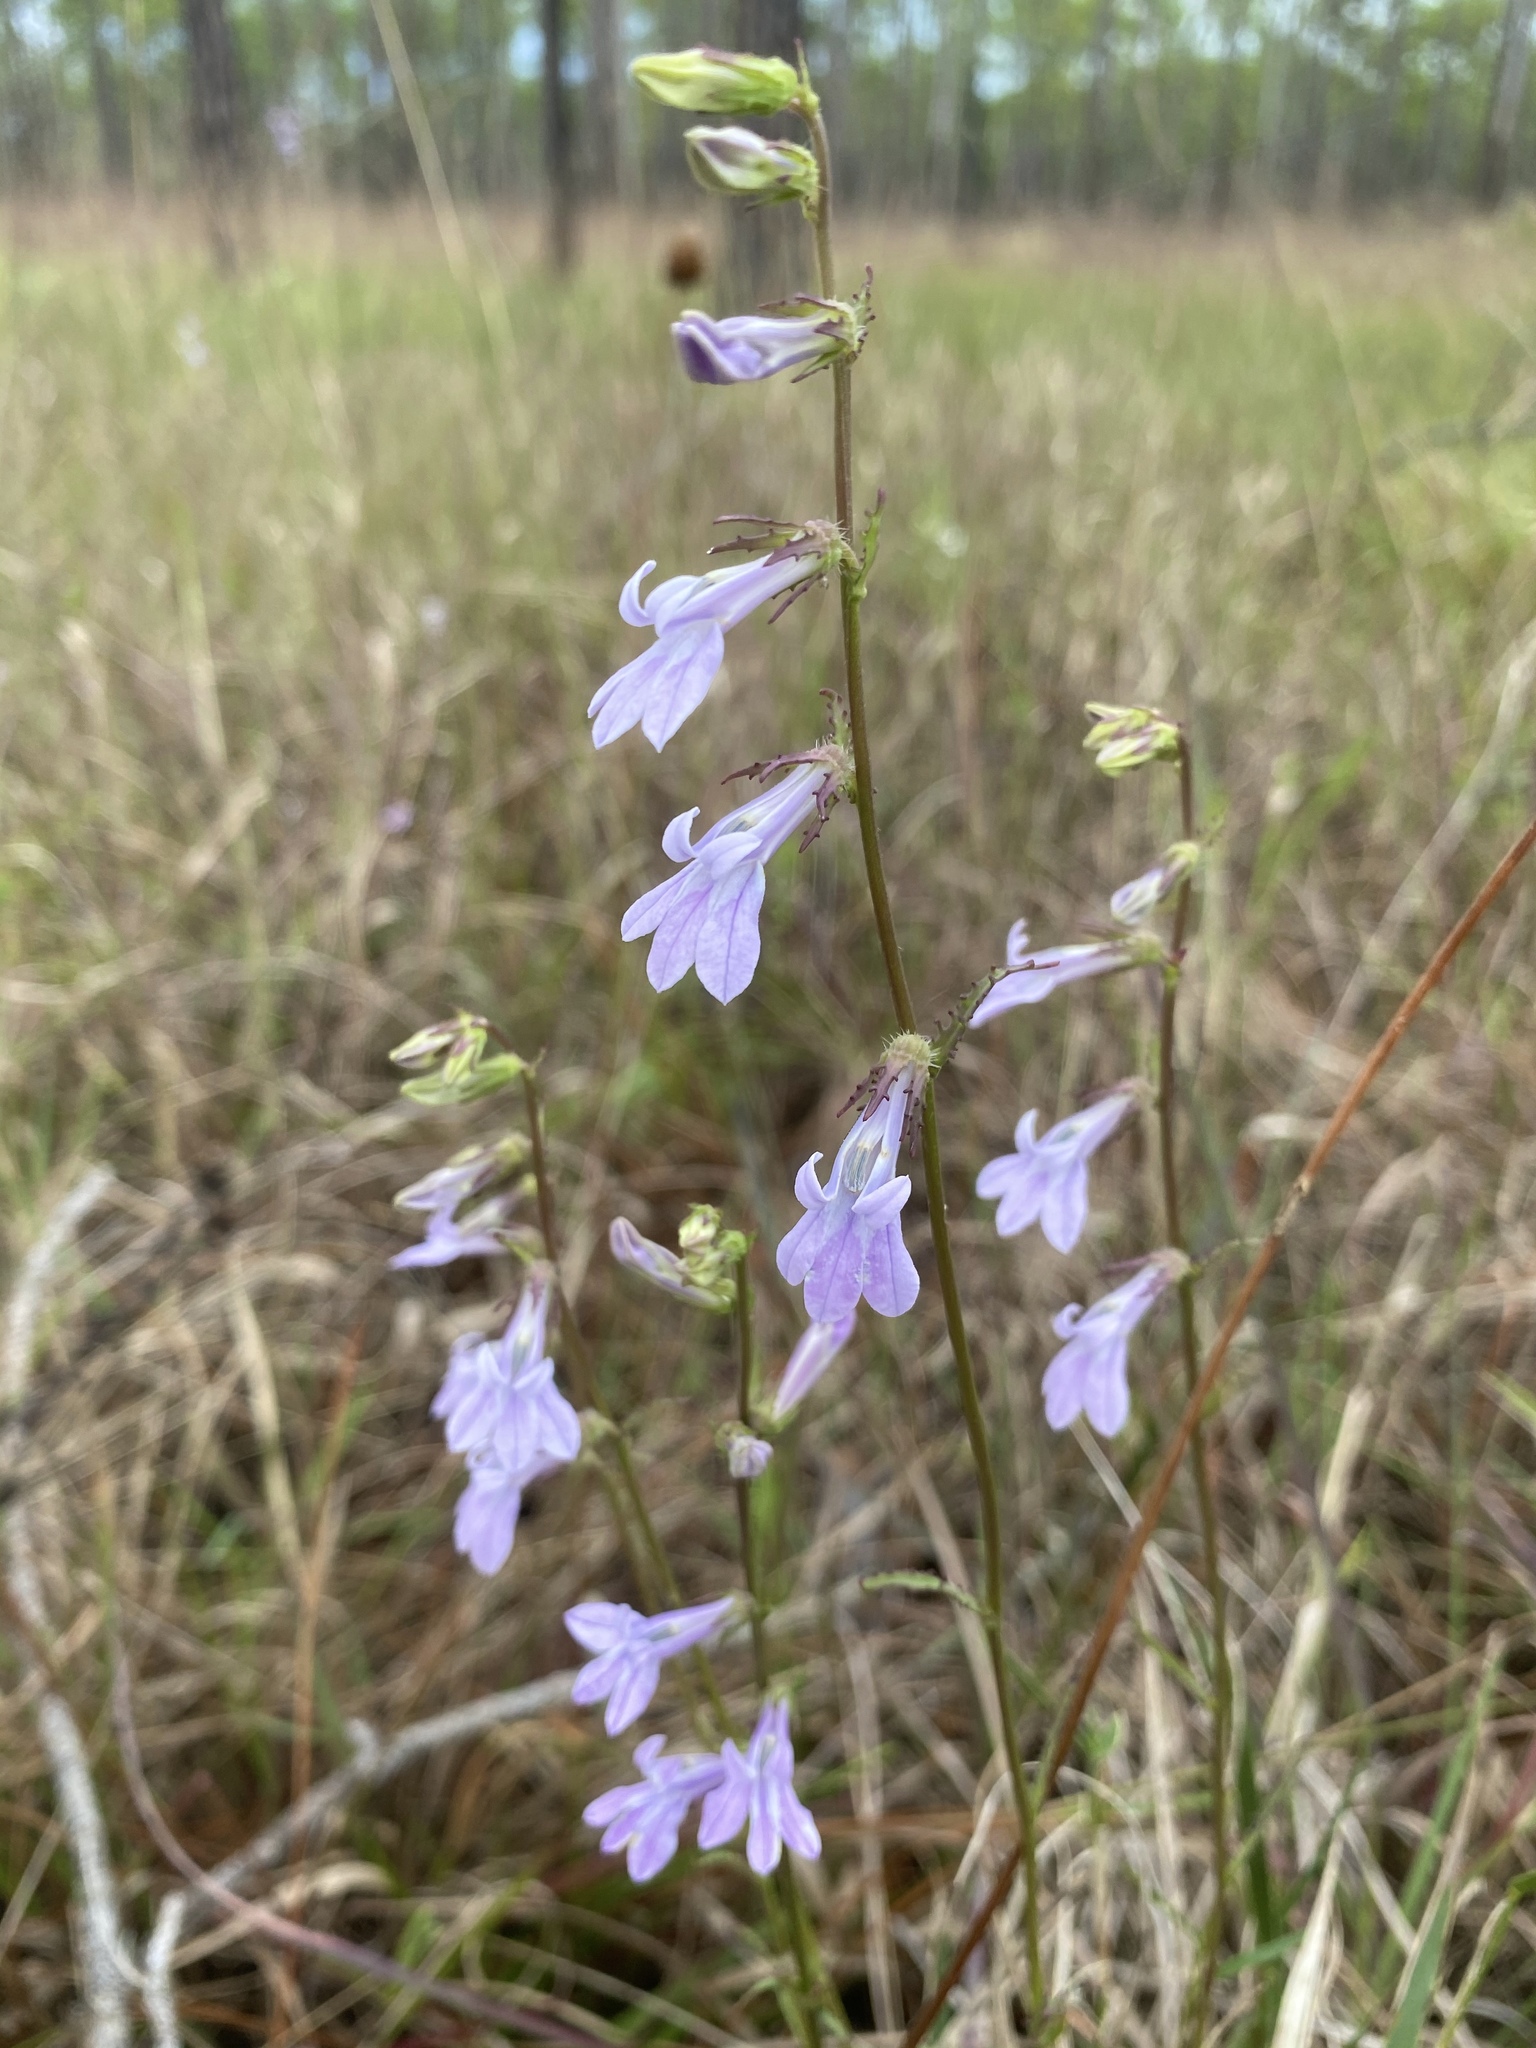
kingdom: Plantae
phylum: Tracheophyta
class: Magnoliopsida
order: Asterales
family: Campanulaceae
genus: Lobelia
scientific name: Lobelia glandulosa
